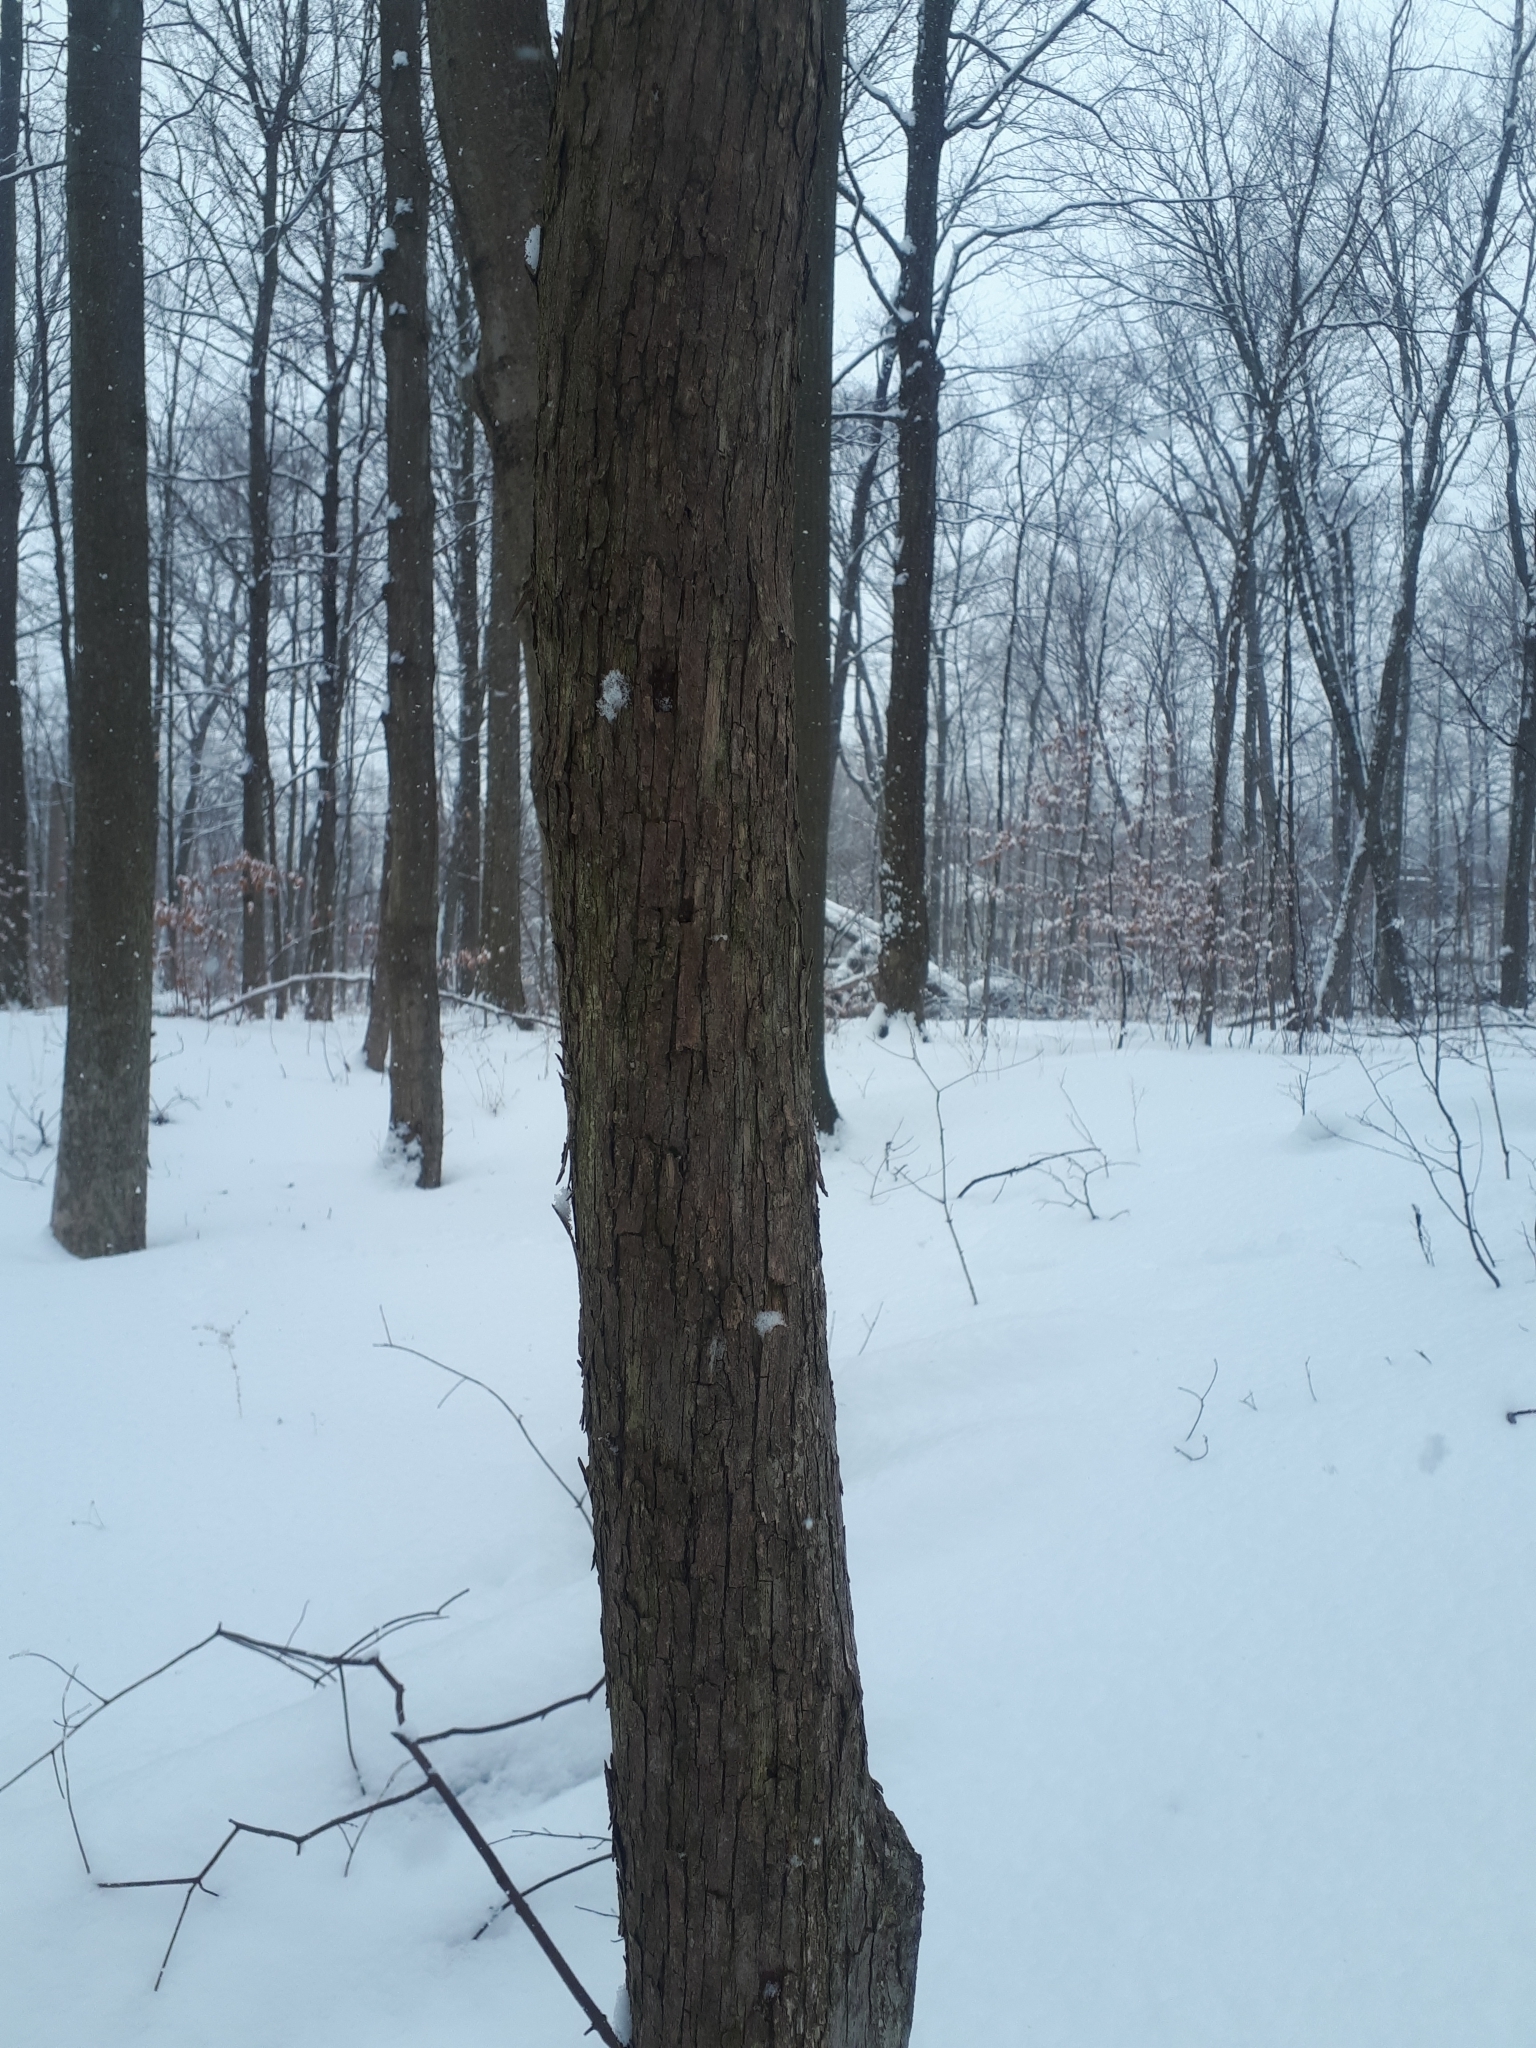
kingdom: Plantae
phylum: Tracheophyta
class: Magnoliopsida
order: Fagales
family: Betulaceae
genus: Ostrya
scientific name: Ostrya virginiana
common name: Ironwood
